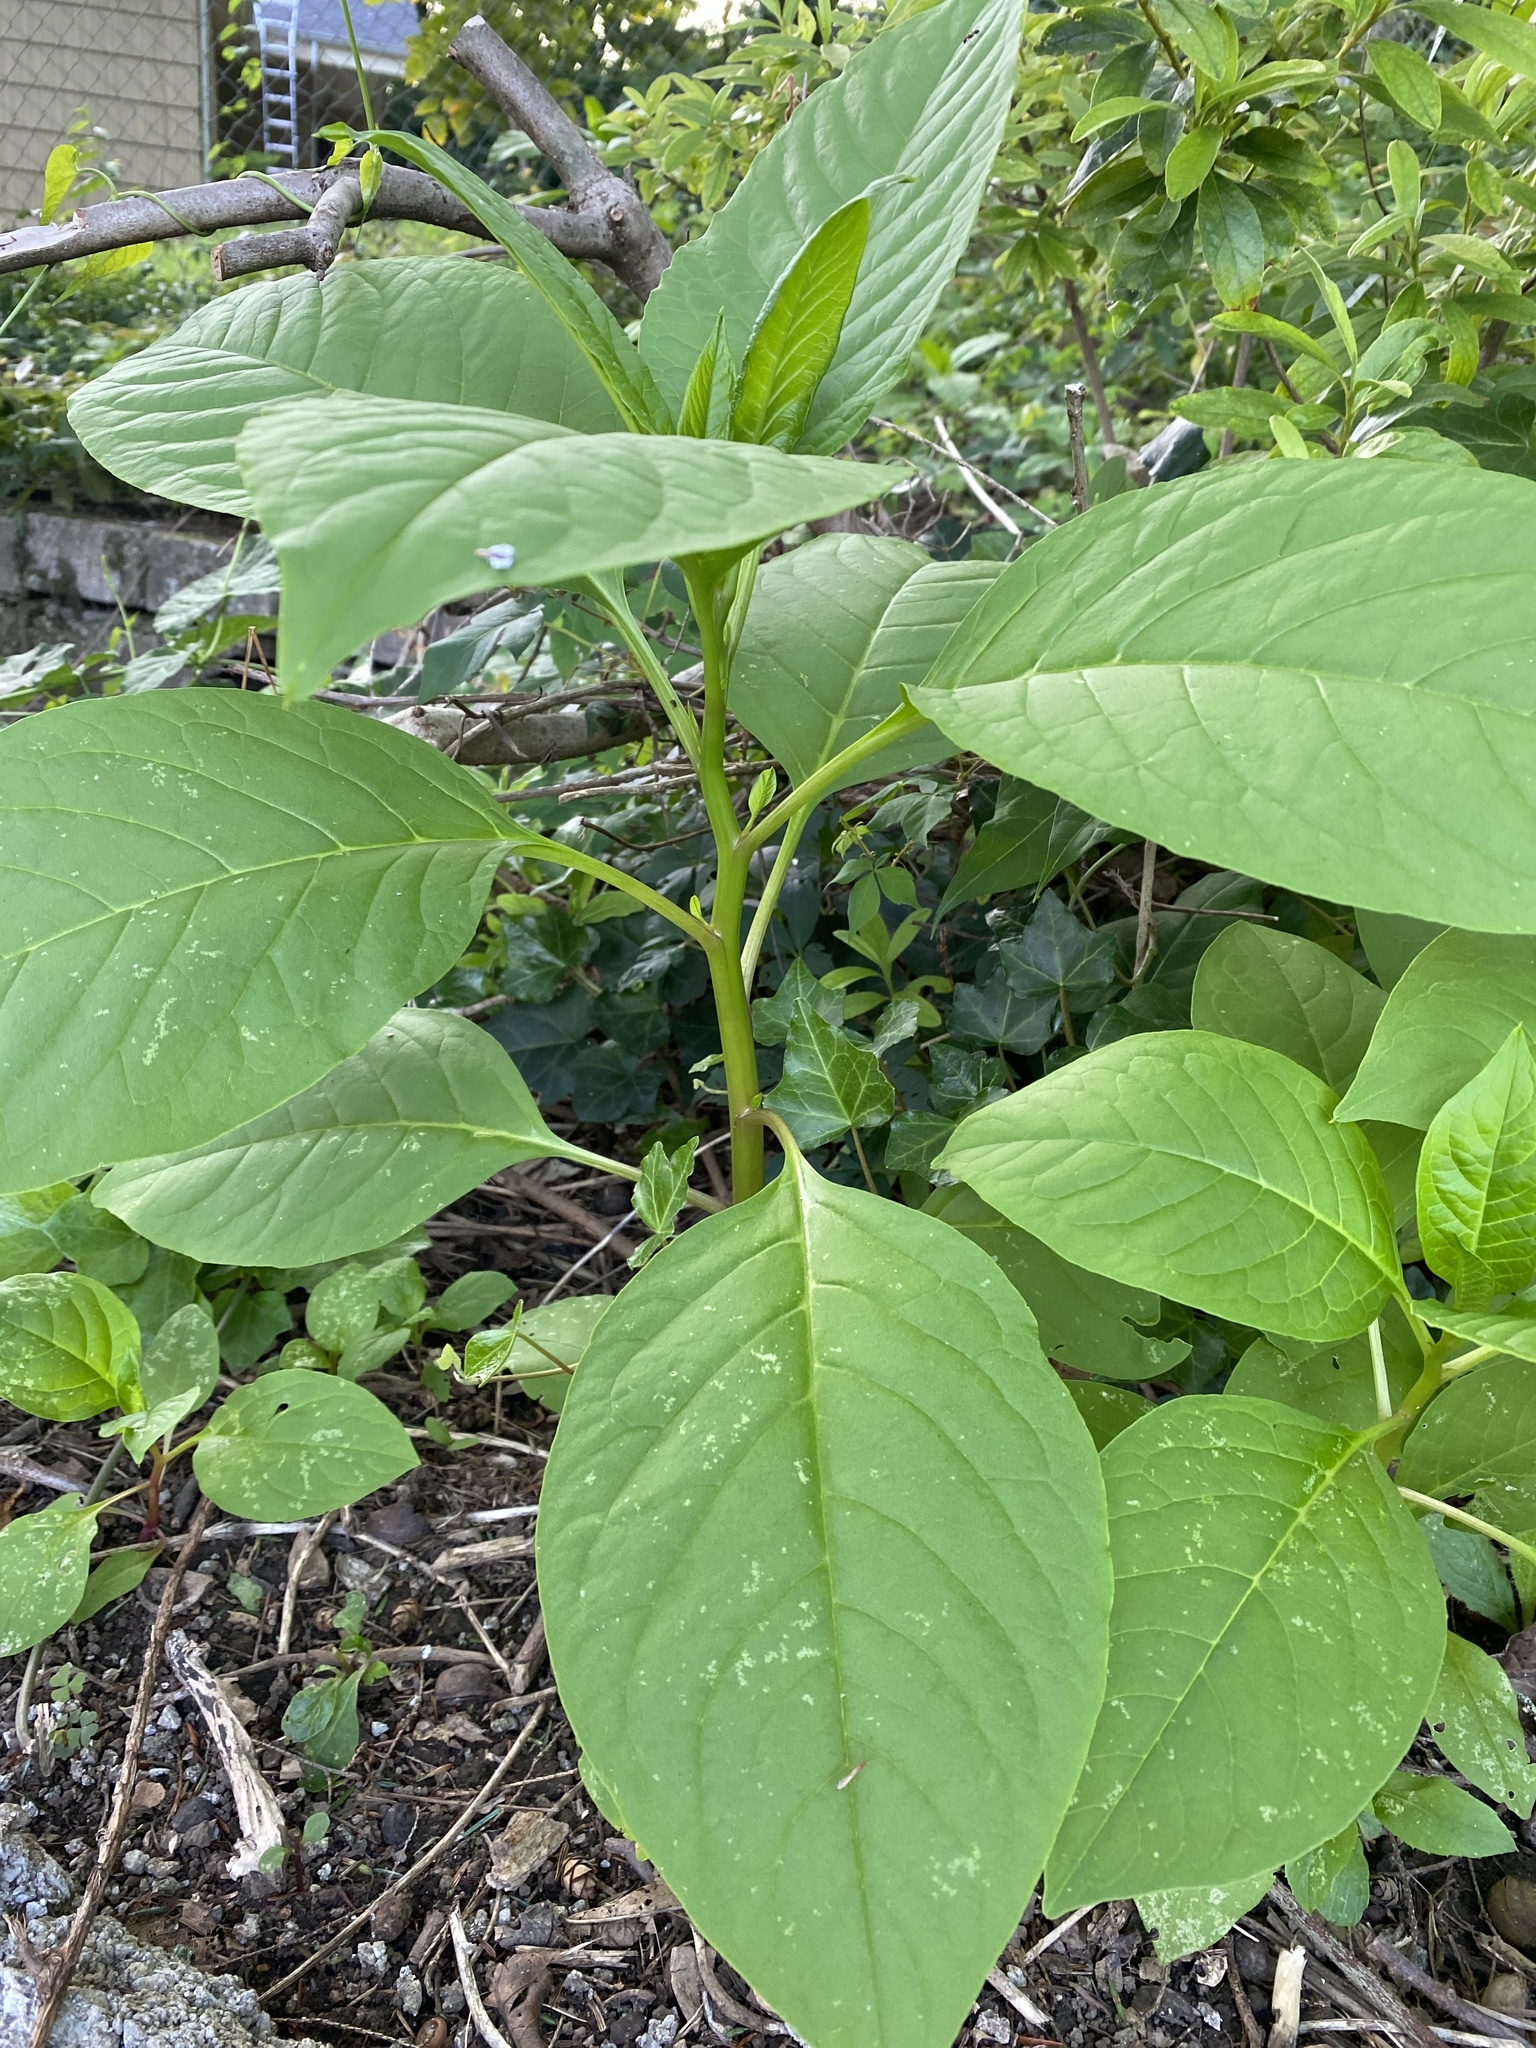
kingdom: Plantae
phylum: Tracheophyta
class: Magnoliopsida
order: Caryophyllales
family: Phytolaccaceae
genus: Phytolacca
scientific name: Phytolacca americana
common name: American pokeweed
